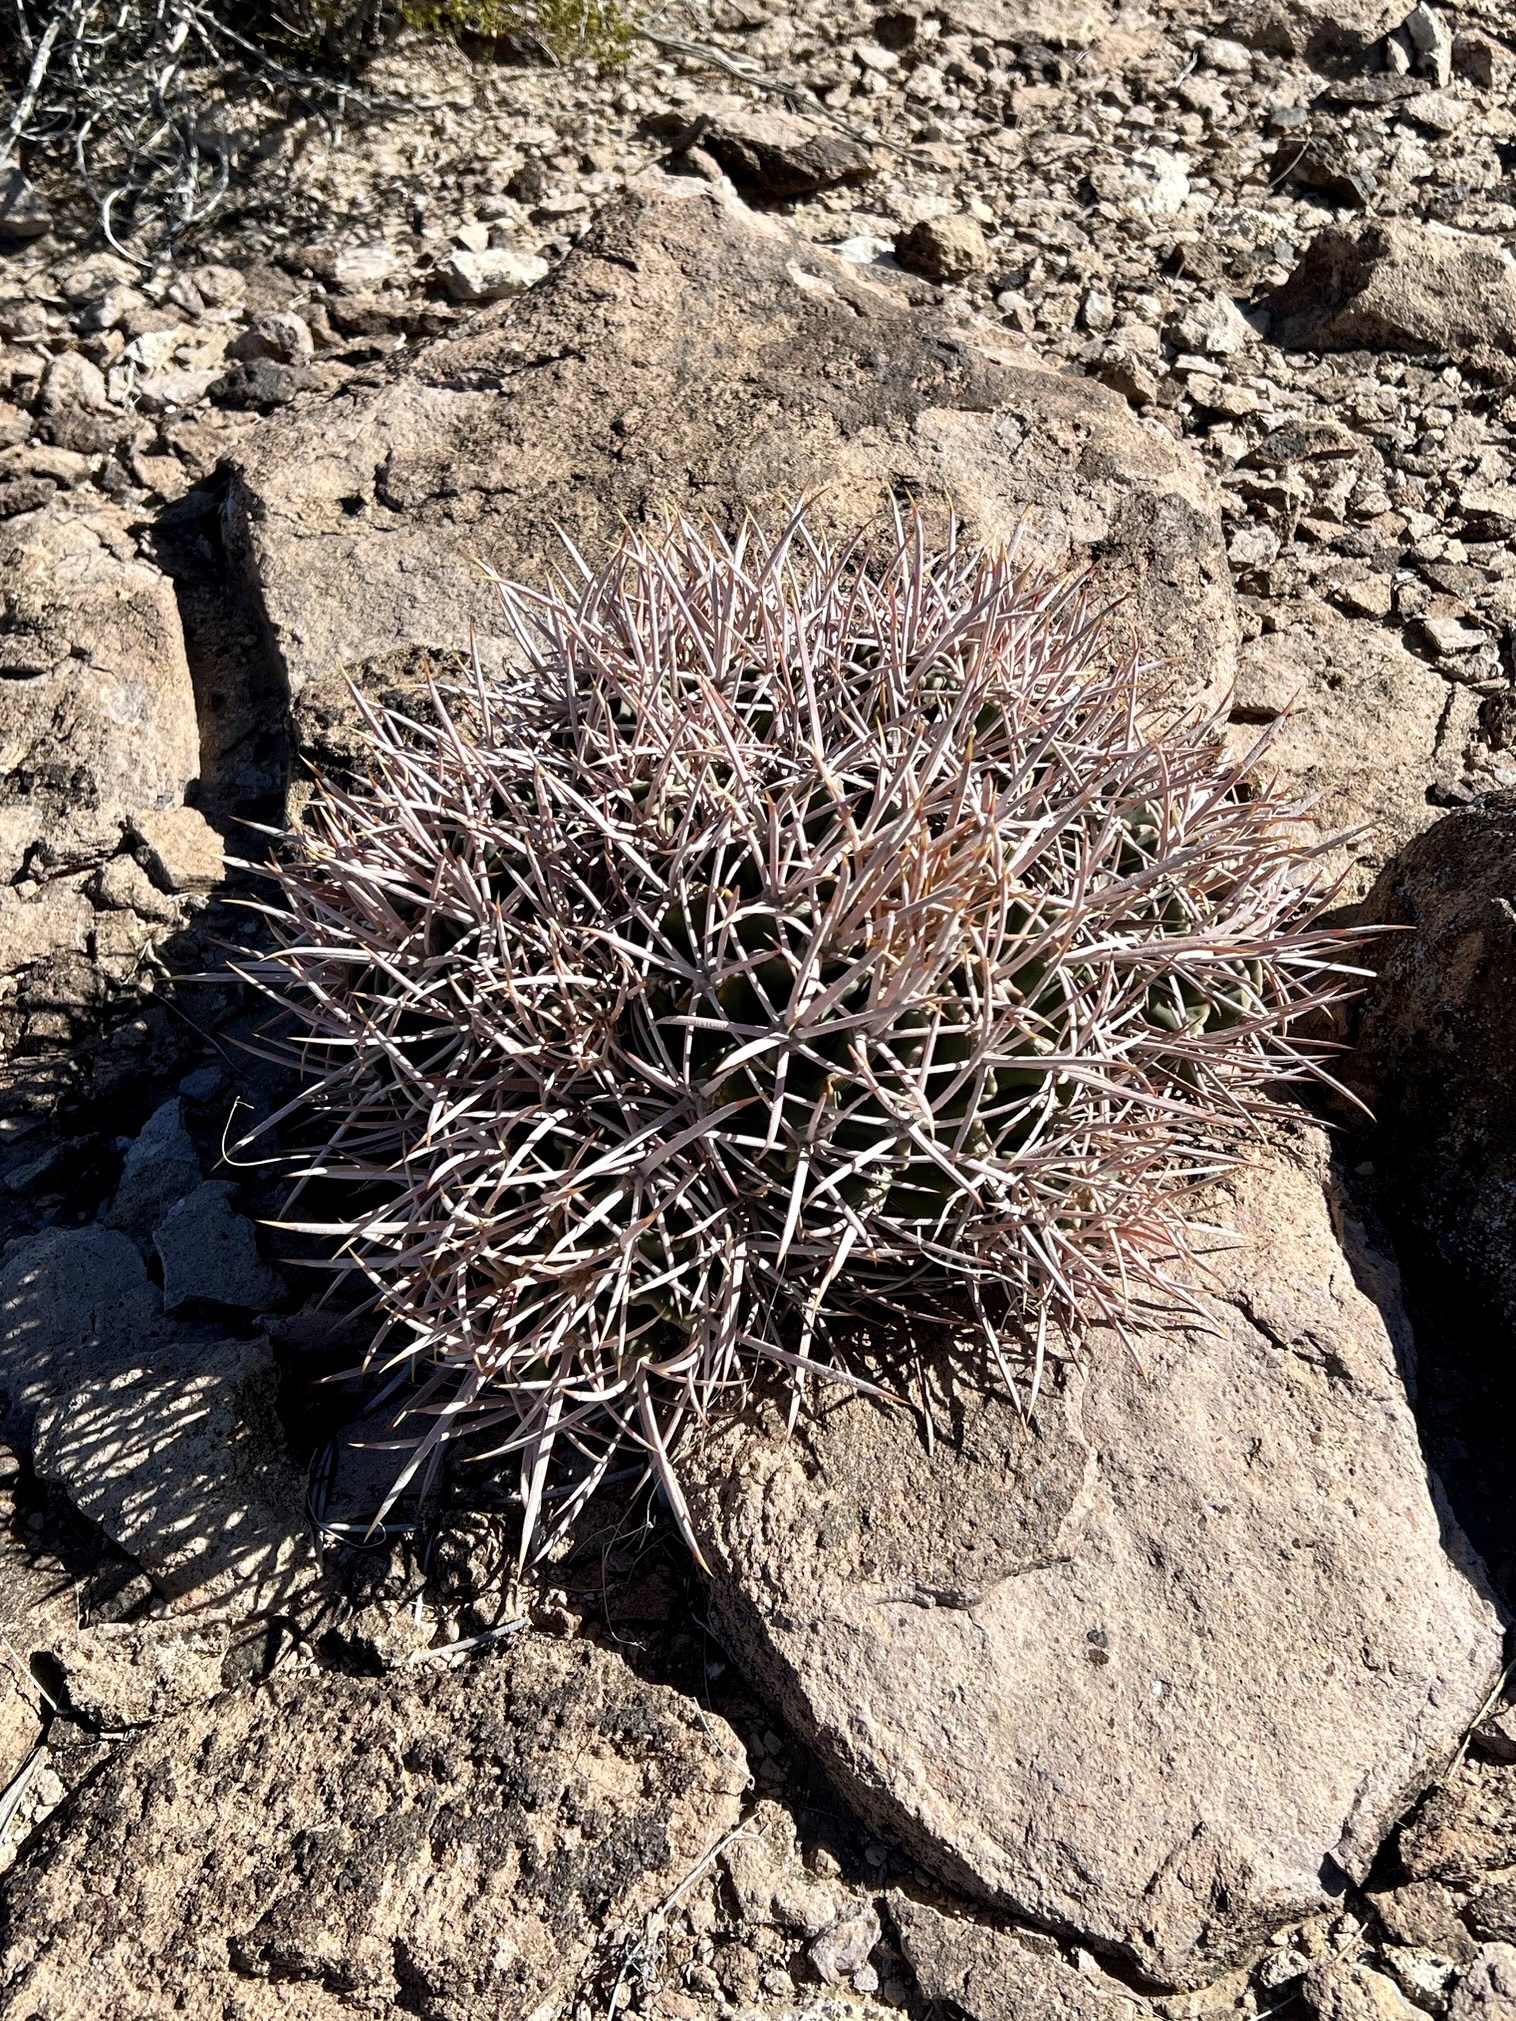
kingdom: Plantae
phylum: Tracheophyta
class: Magnoliopsida
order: Caryophyllales
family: Cactaceae
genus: Echinocactus
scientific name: Echinocactus polycephalus
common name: Cottontop cactus
